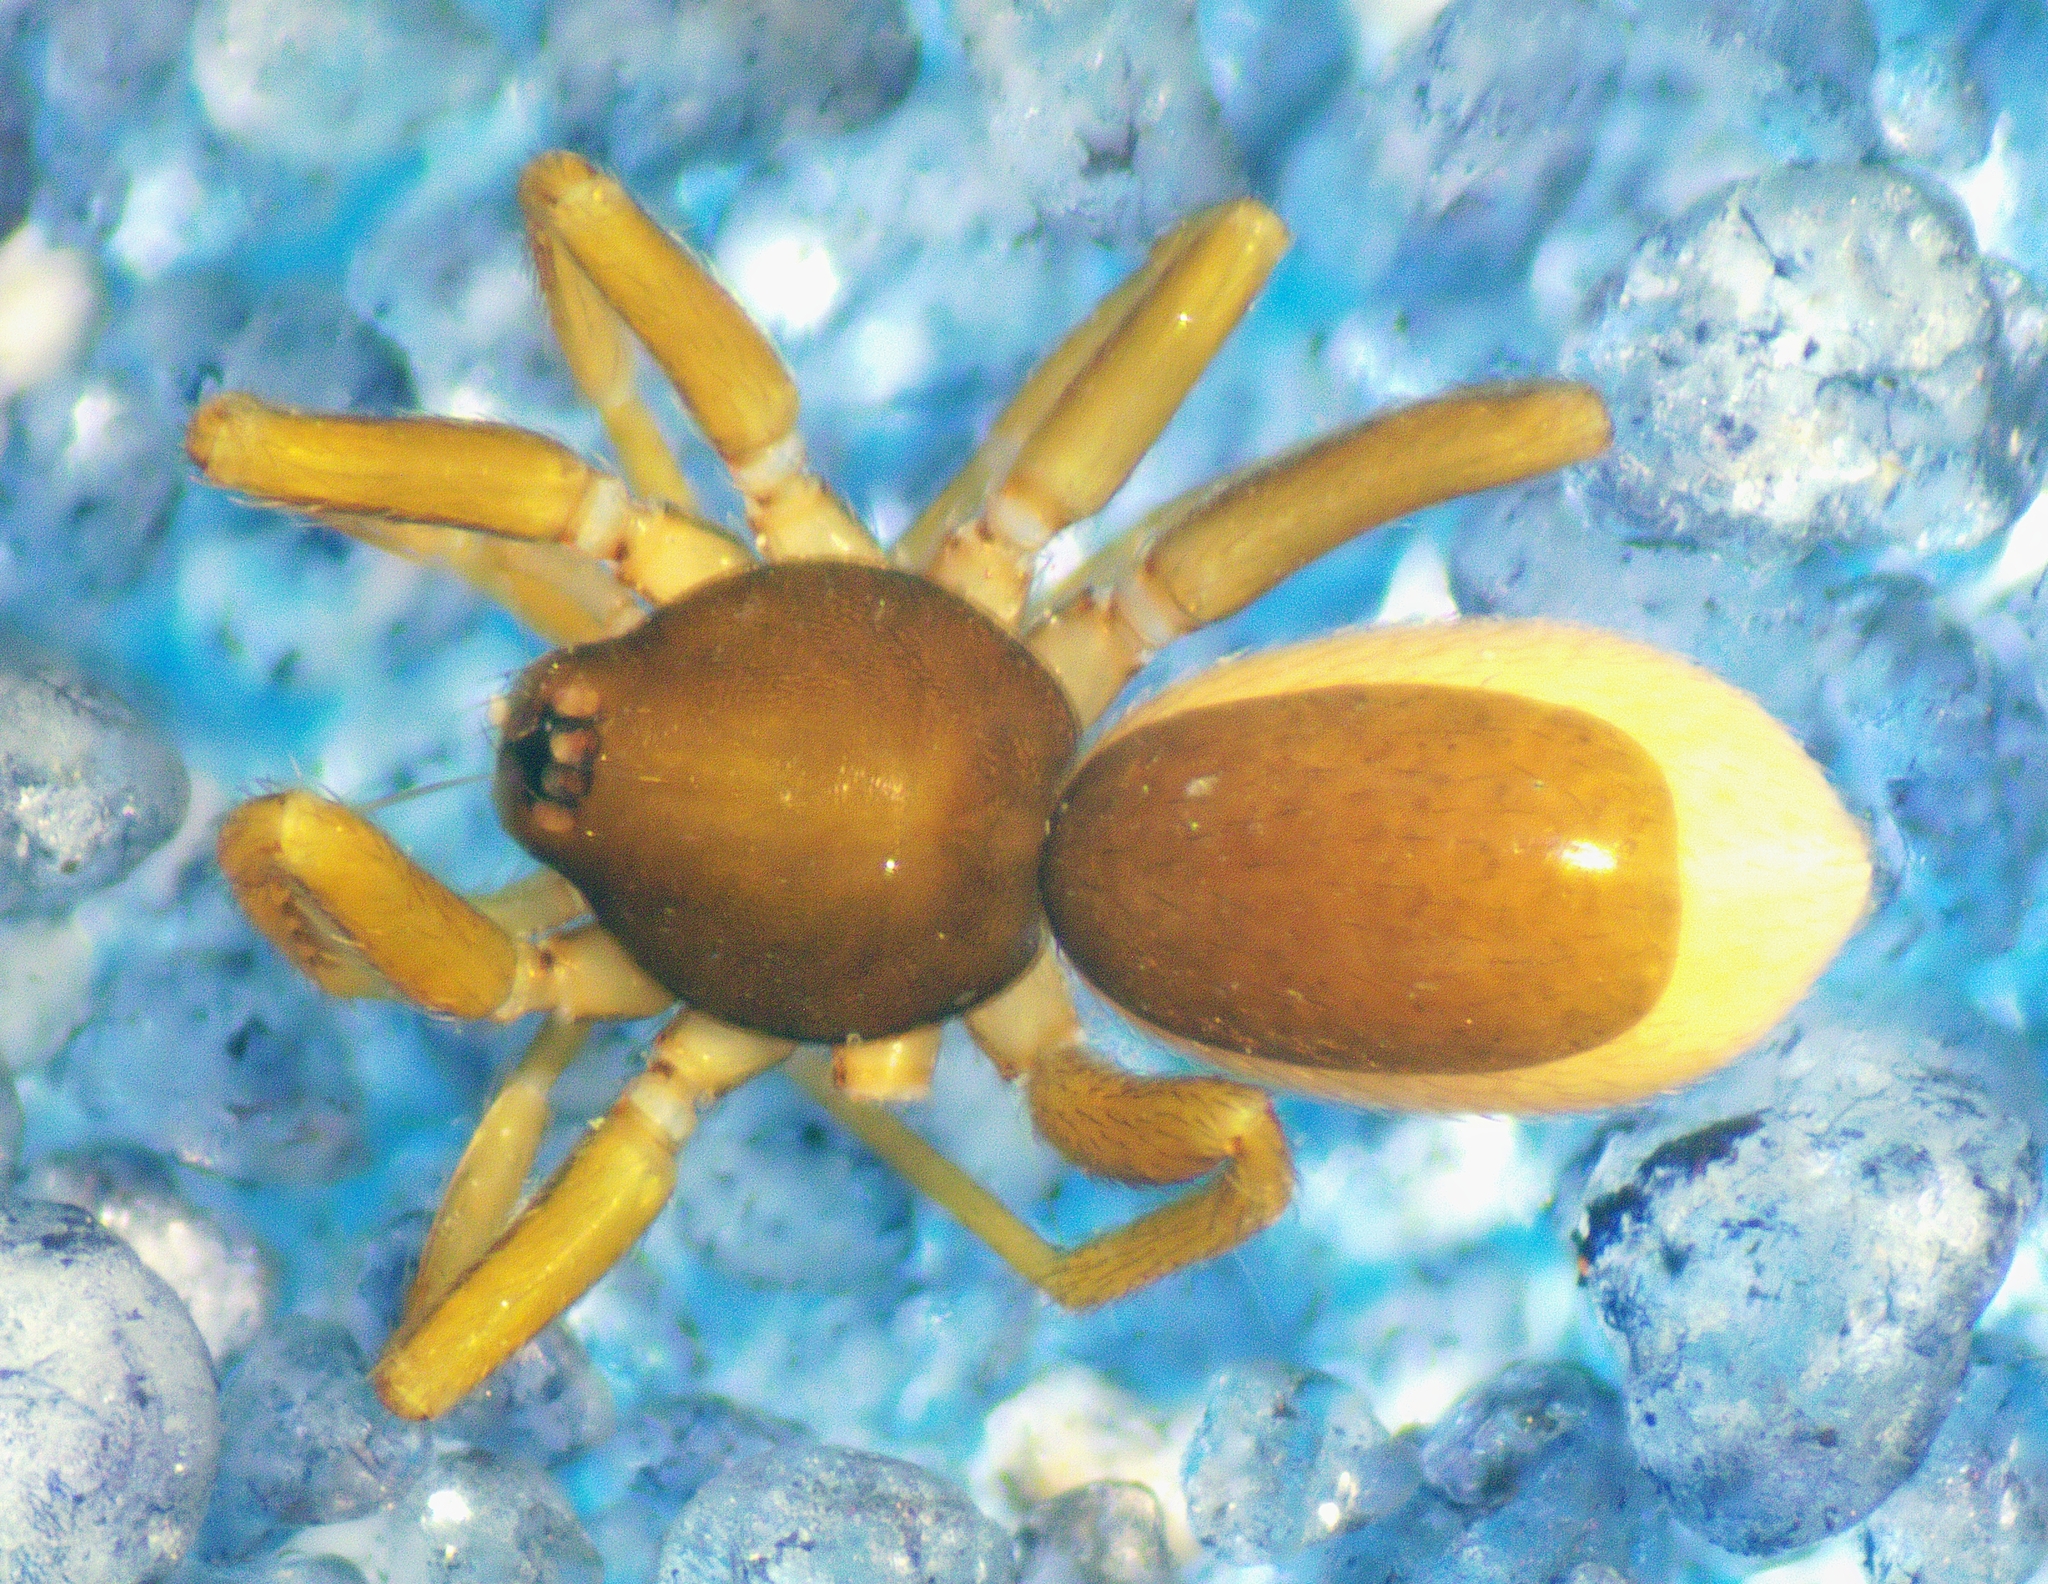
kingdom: Animalia
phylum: Arthropoda
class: Arachnida
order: Araneae
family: Oonopidae
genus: Ischnothyreus
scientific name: Ischnothyreus hamatus
